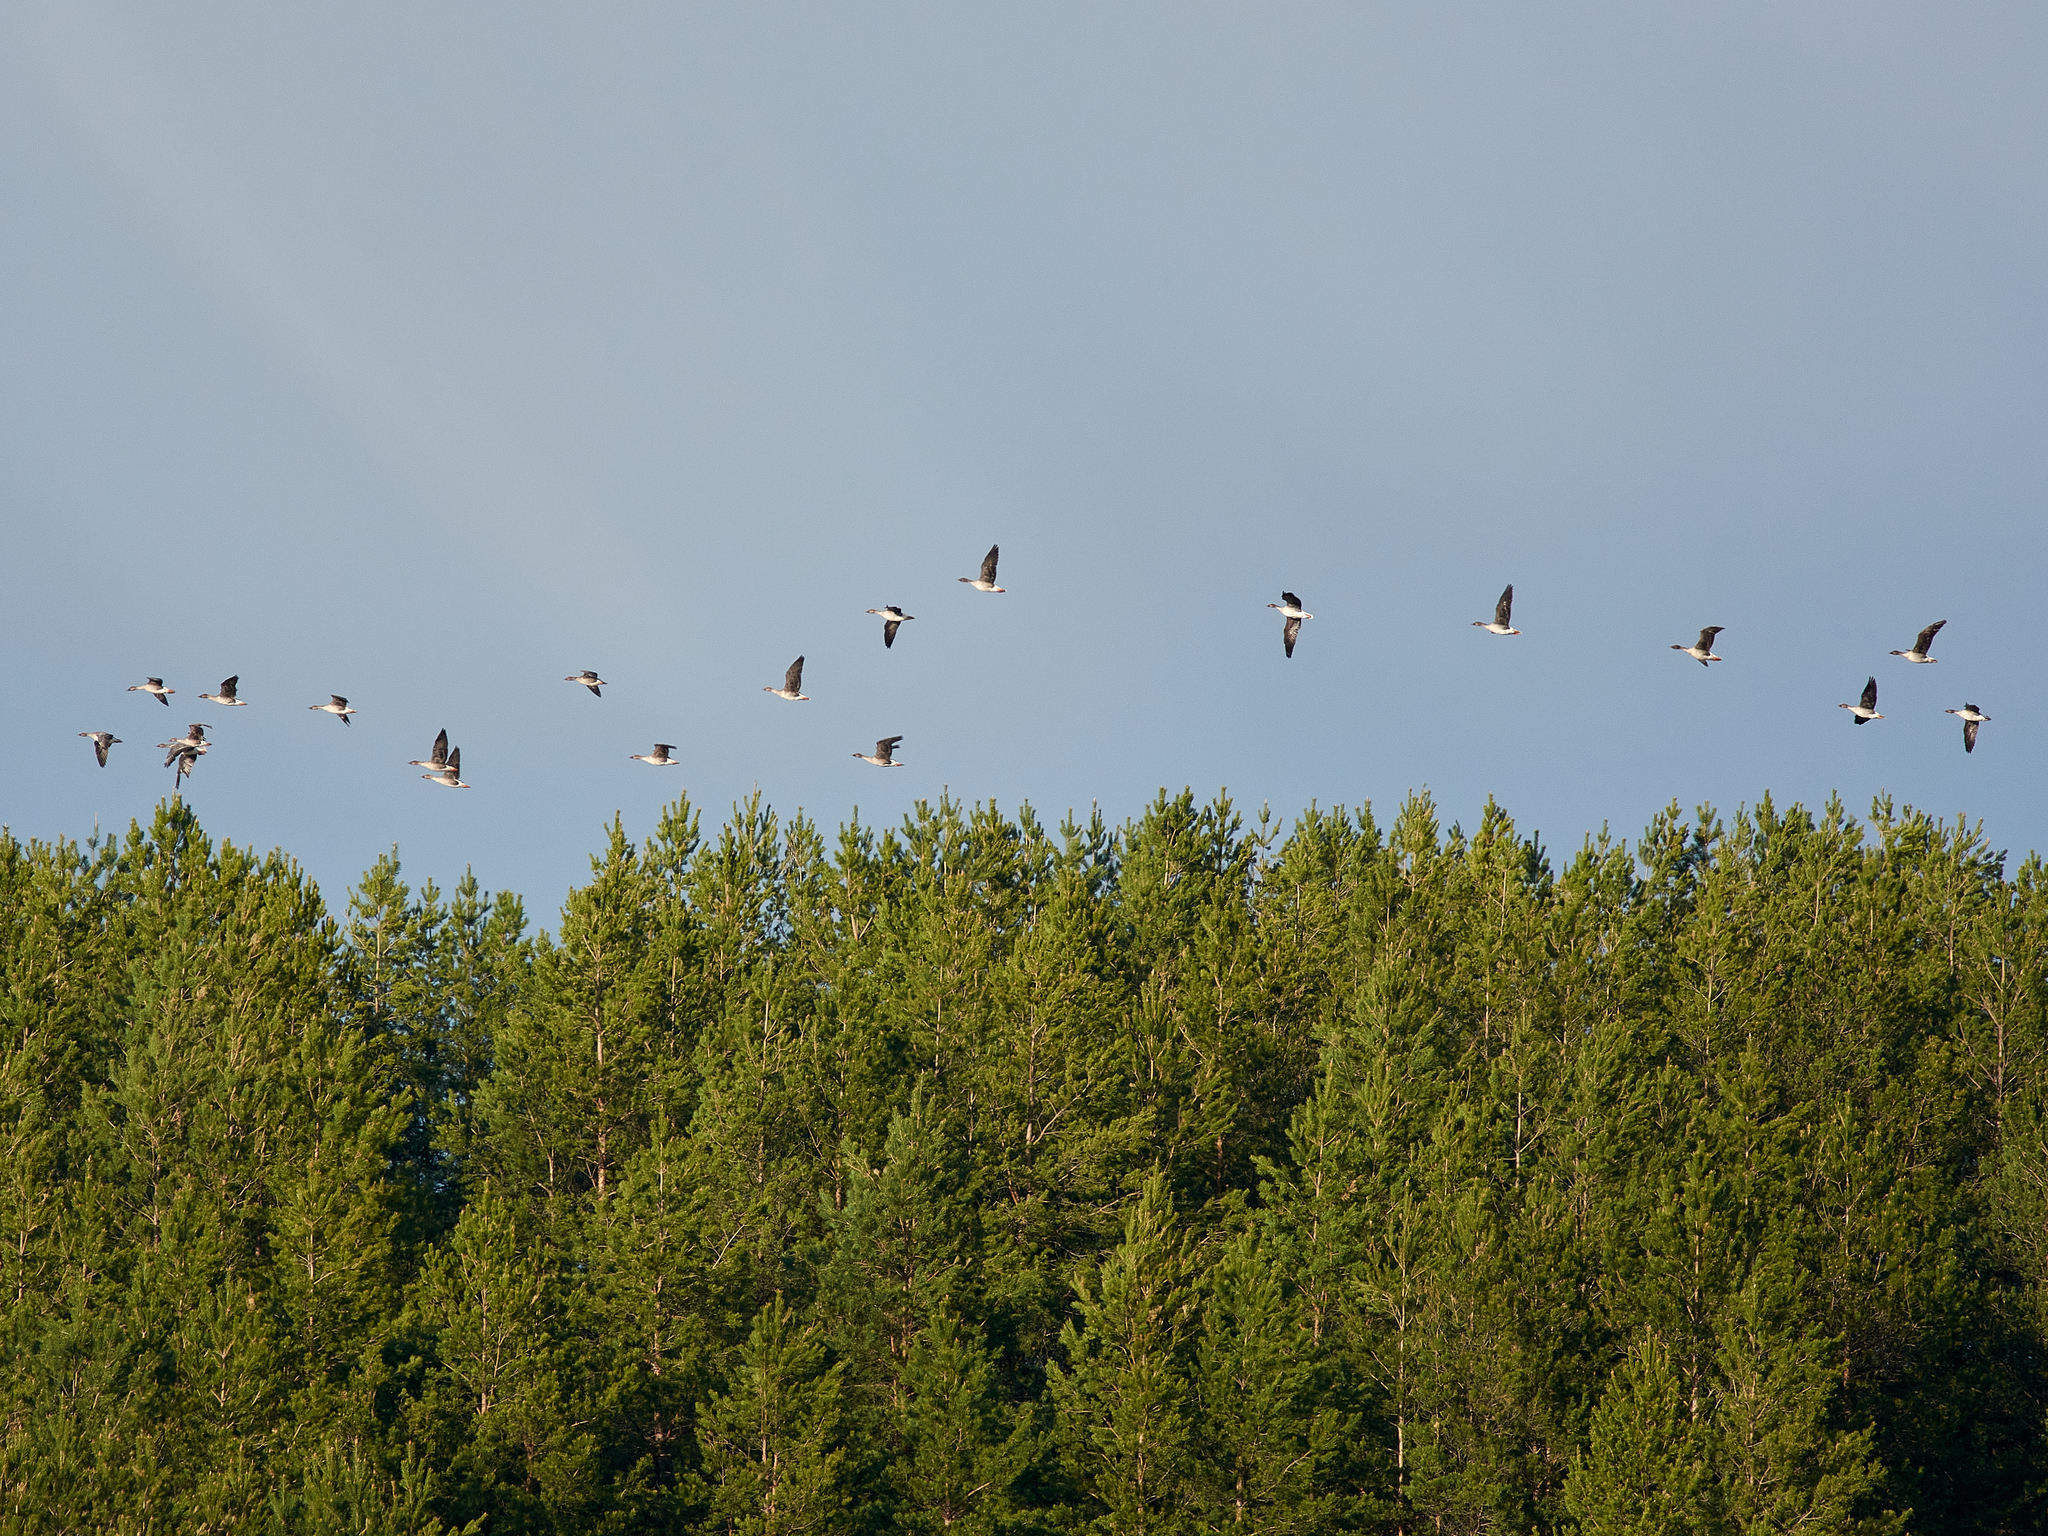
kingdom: Animalia
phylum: Chordata
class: Aves
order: Anseriformes
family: Anatidae
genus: Anser
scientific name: Anser fabalis
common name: Bean goose
